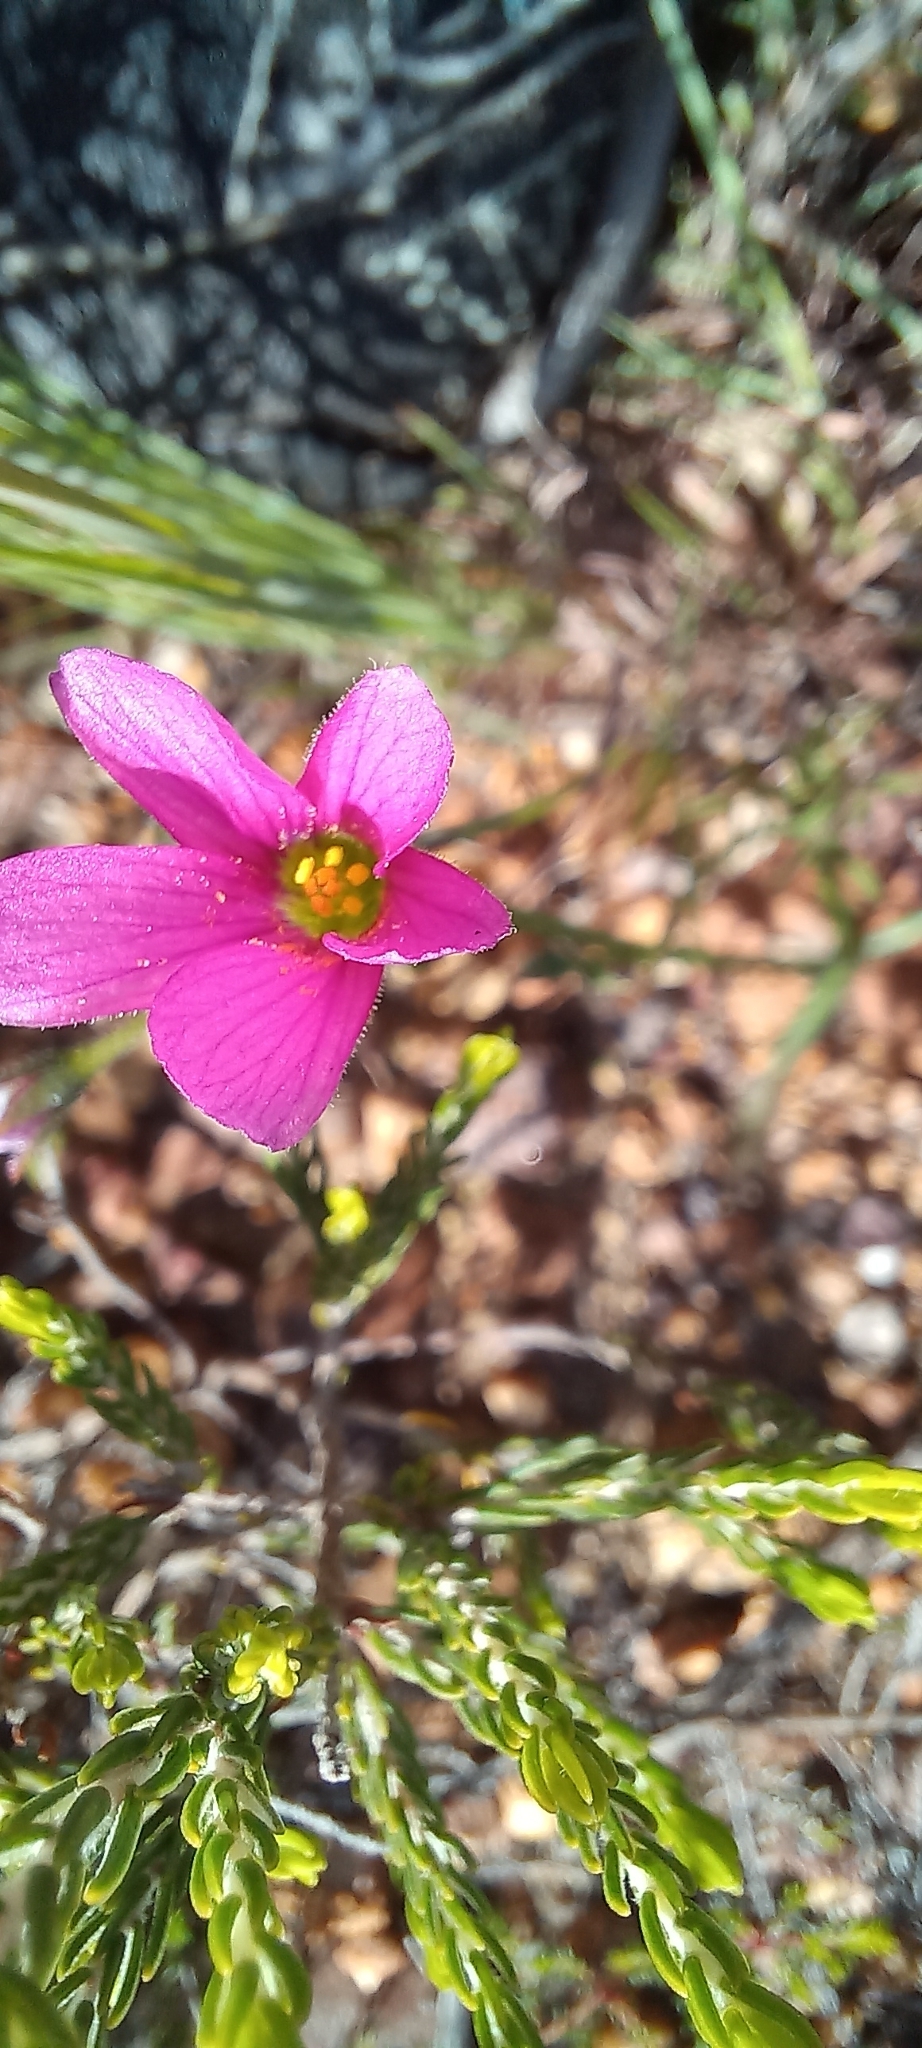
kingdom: Plantae
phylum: Tracheophyta
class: Magnoliopsida
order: Oxalidales
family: Oxalidaceae
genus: Oxalis
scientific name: Oxalis livida
